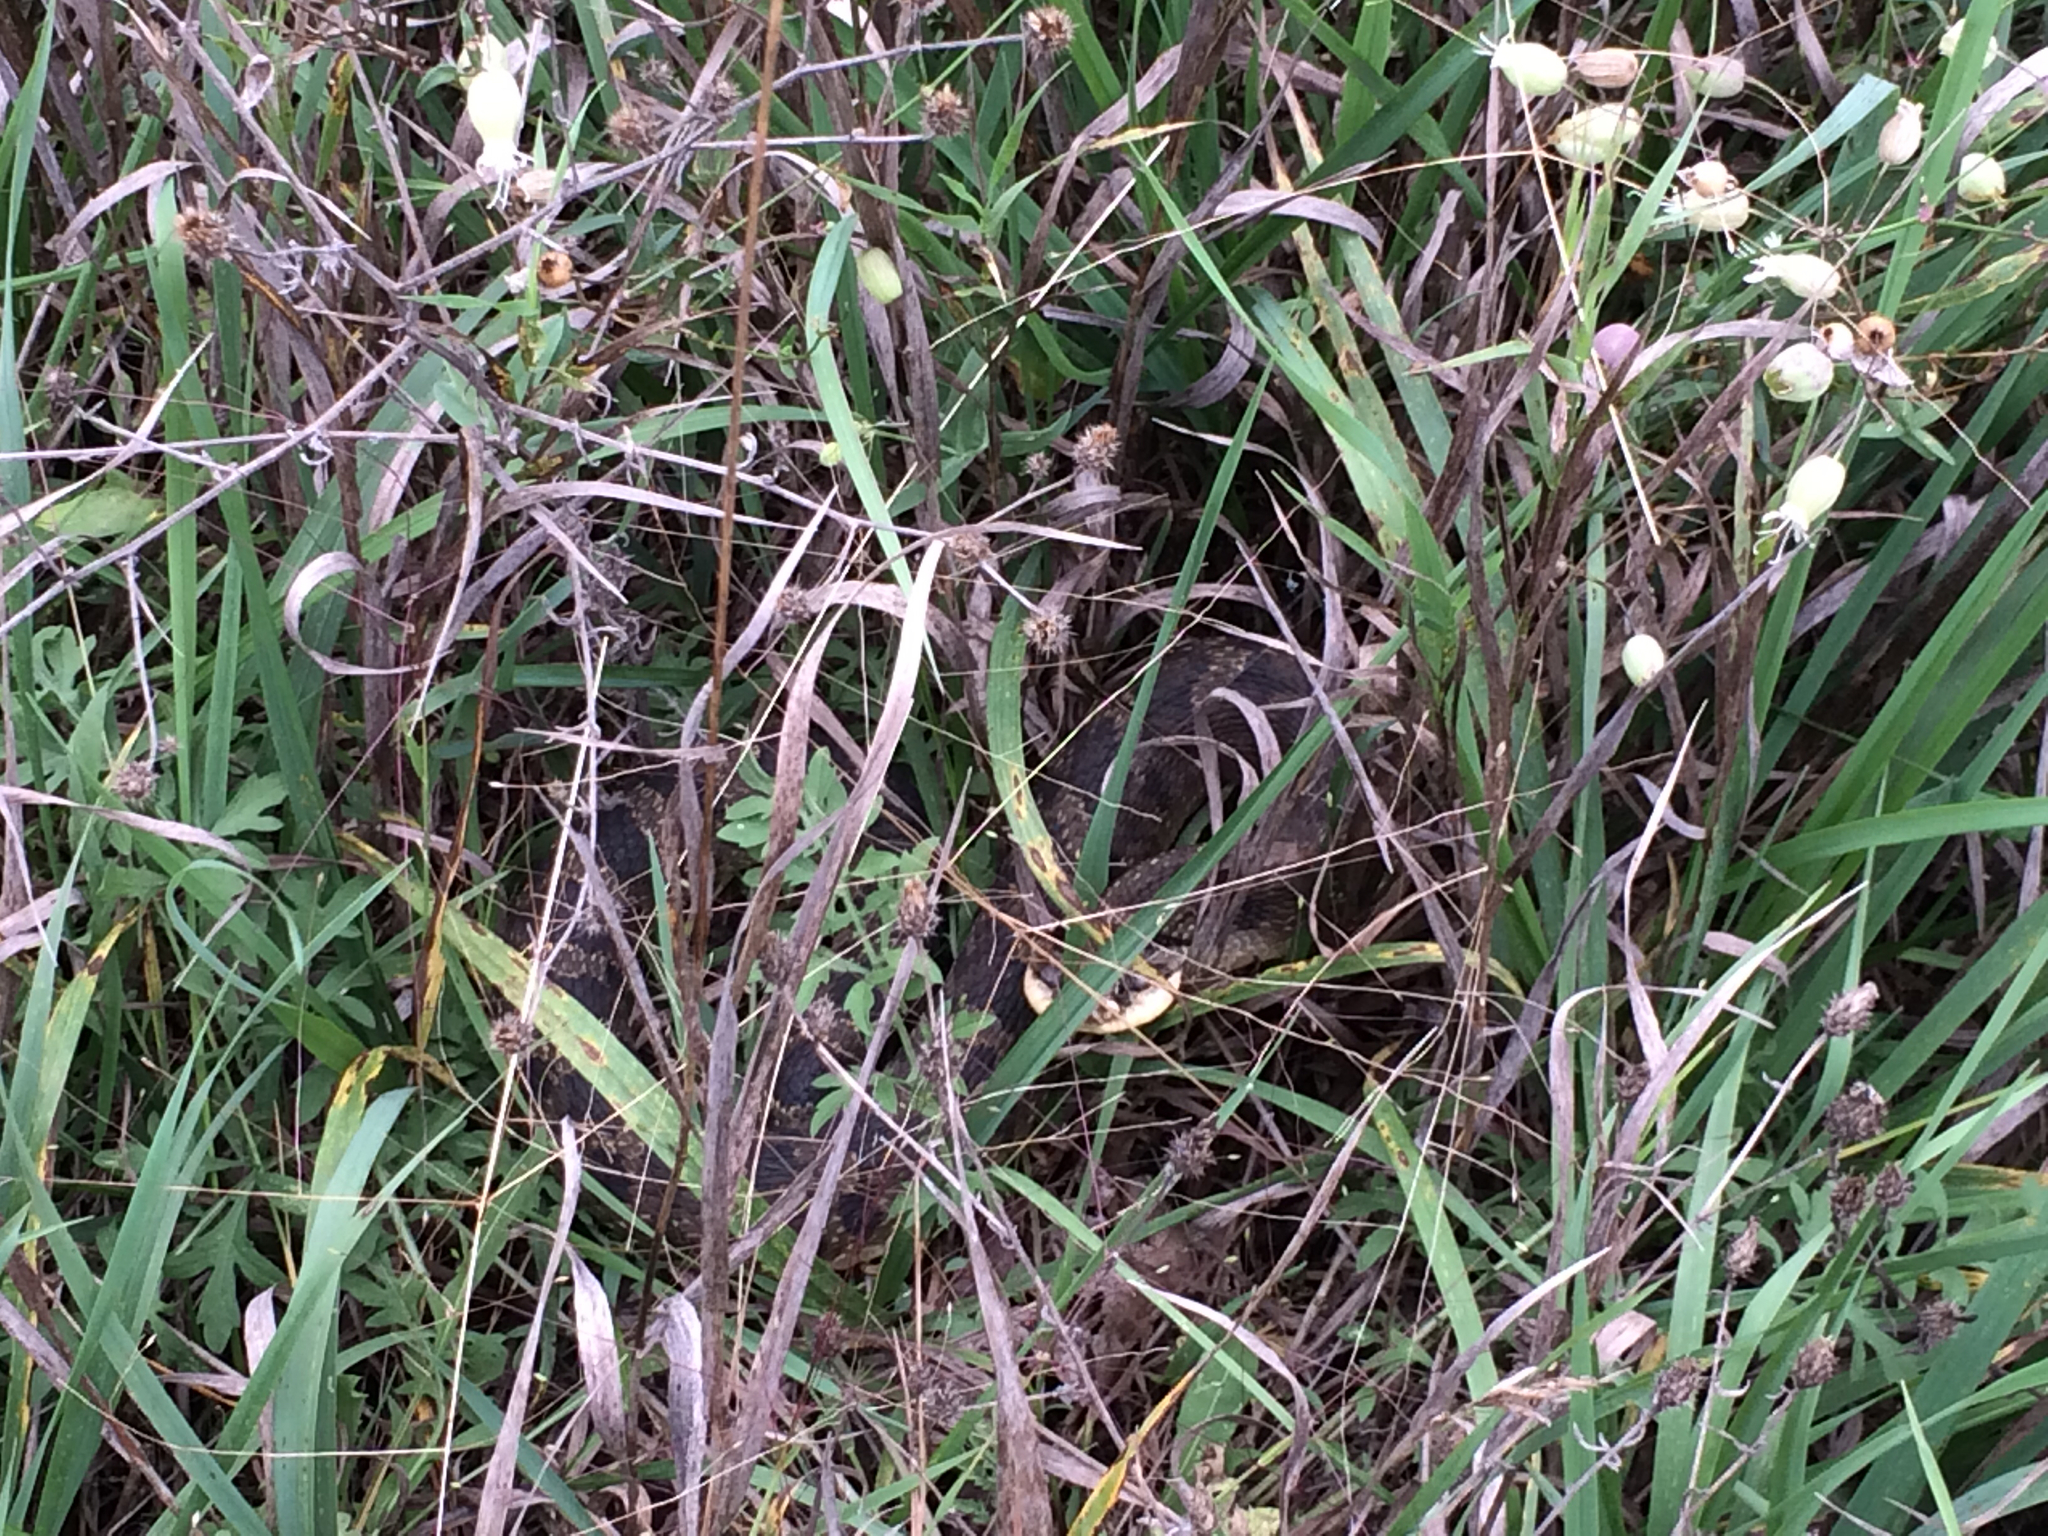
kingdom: Animalia
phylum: Chordata
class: Squamata
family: Colubridae
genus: Heterodon
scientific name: Heterodon platirhinos
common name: Eastern hognose snake
